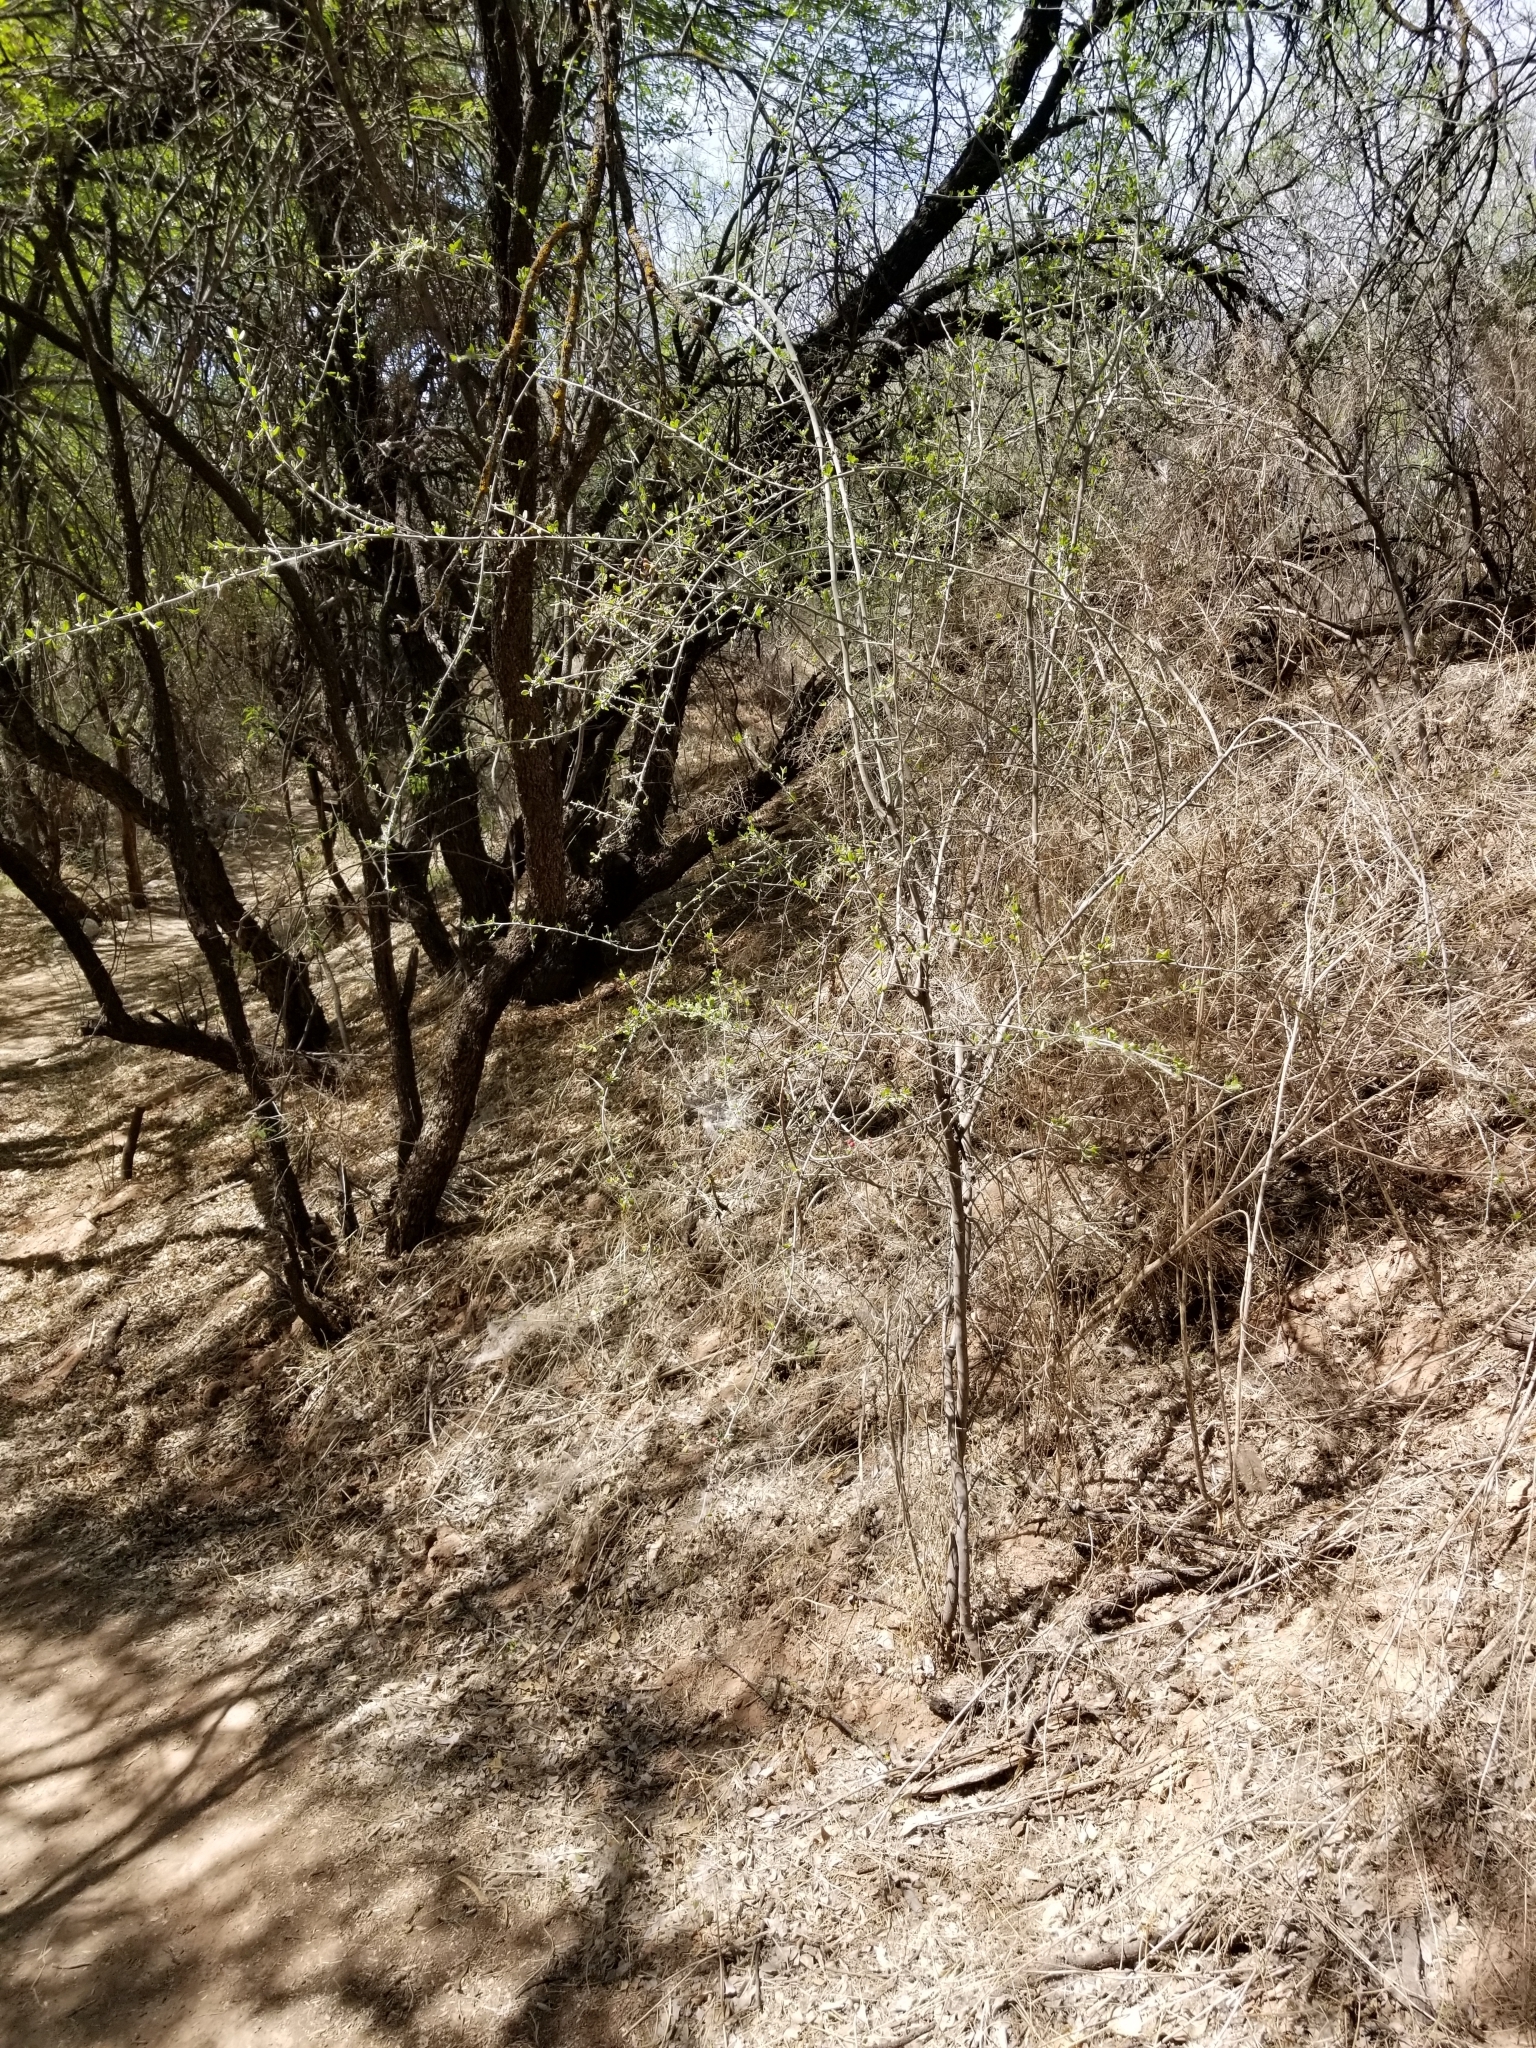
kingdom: Plantae
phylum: Tracheophyta
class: Magnoliopsida
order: Rosales
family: Rhamnaceae
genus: Sarcomphalus
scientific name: Sarcomphalus obtusifolius
